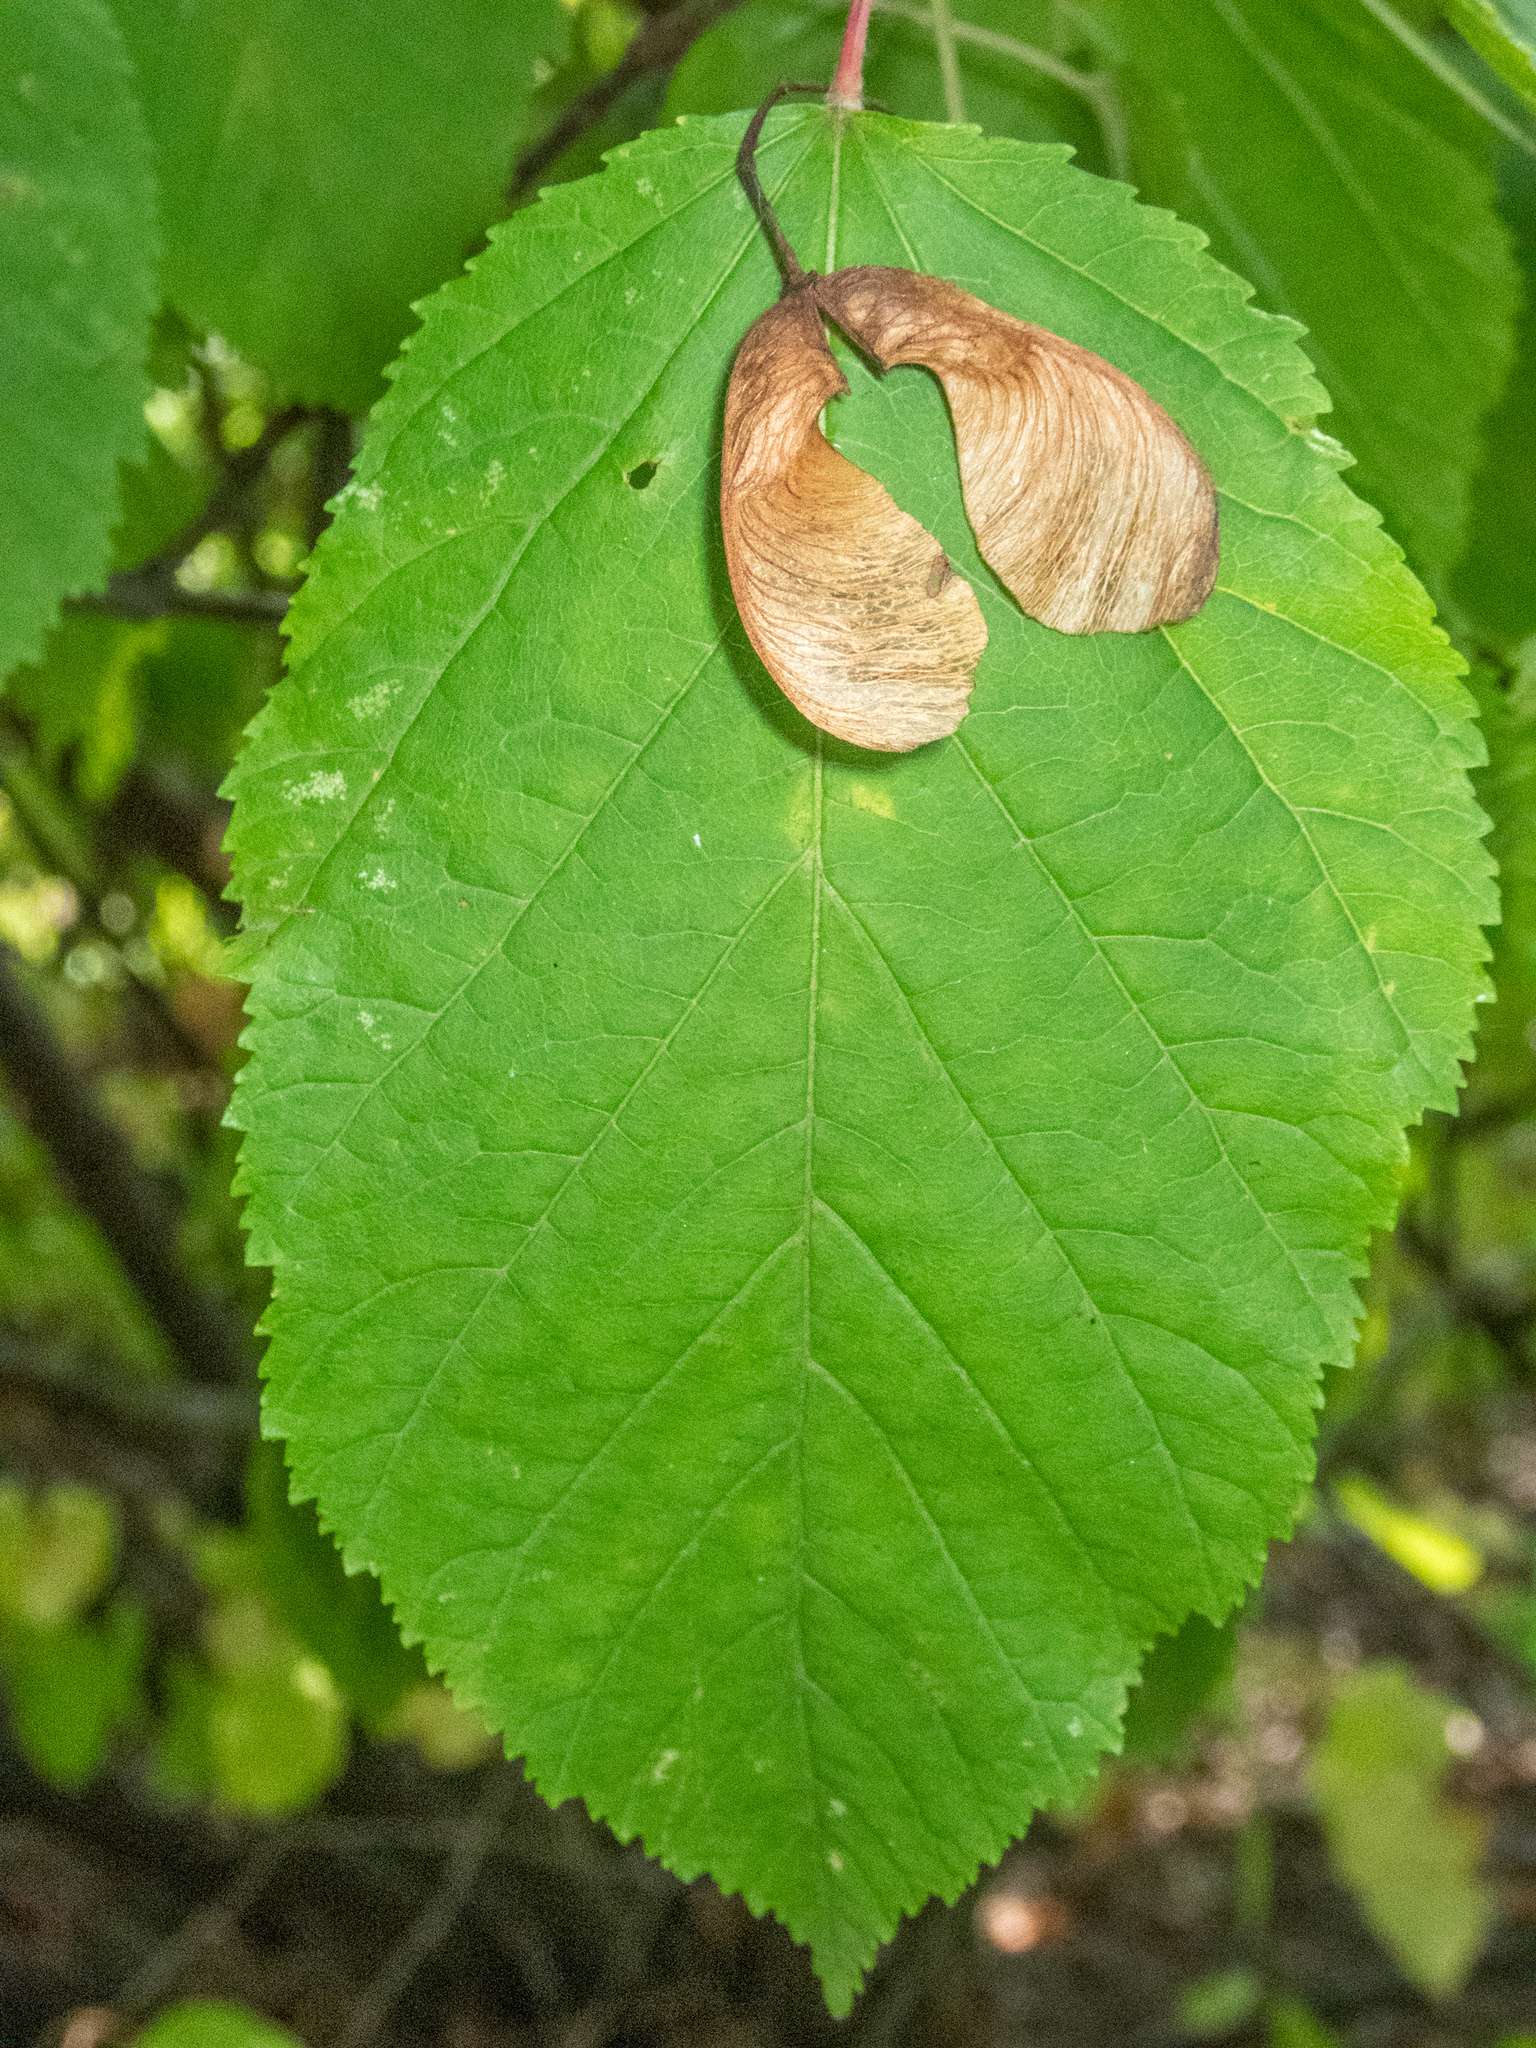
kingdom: Plantae
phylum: Tracheophyta
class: Magnoliopsida
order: Sapindales
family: Sapindaceae
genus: Acer
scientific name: Acer tataricum
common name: Tartar maple
